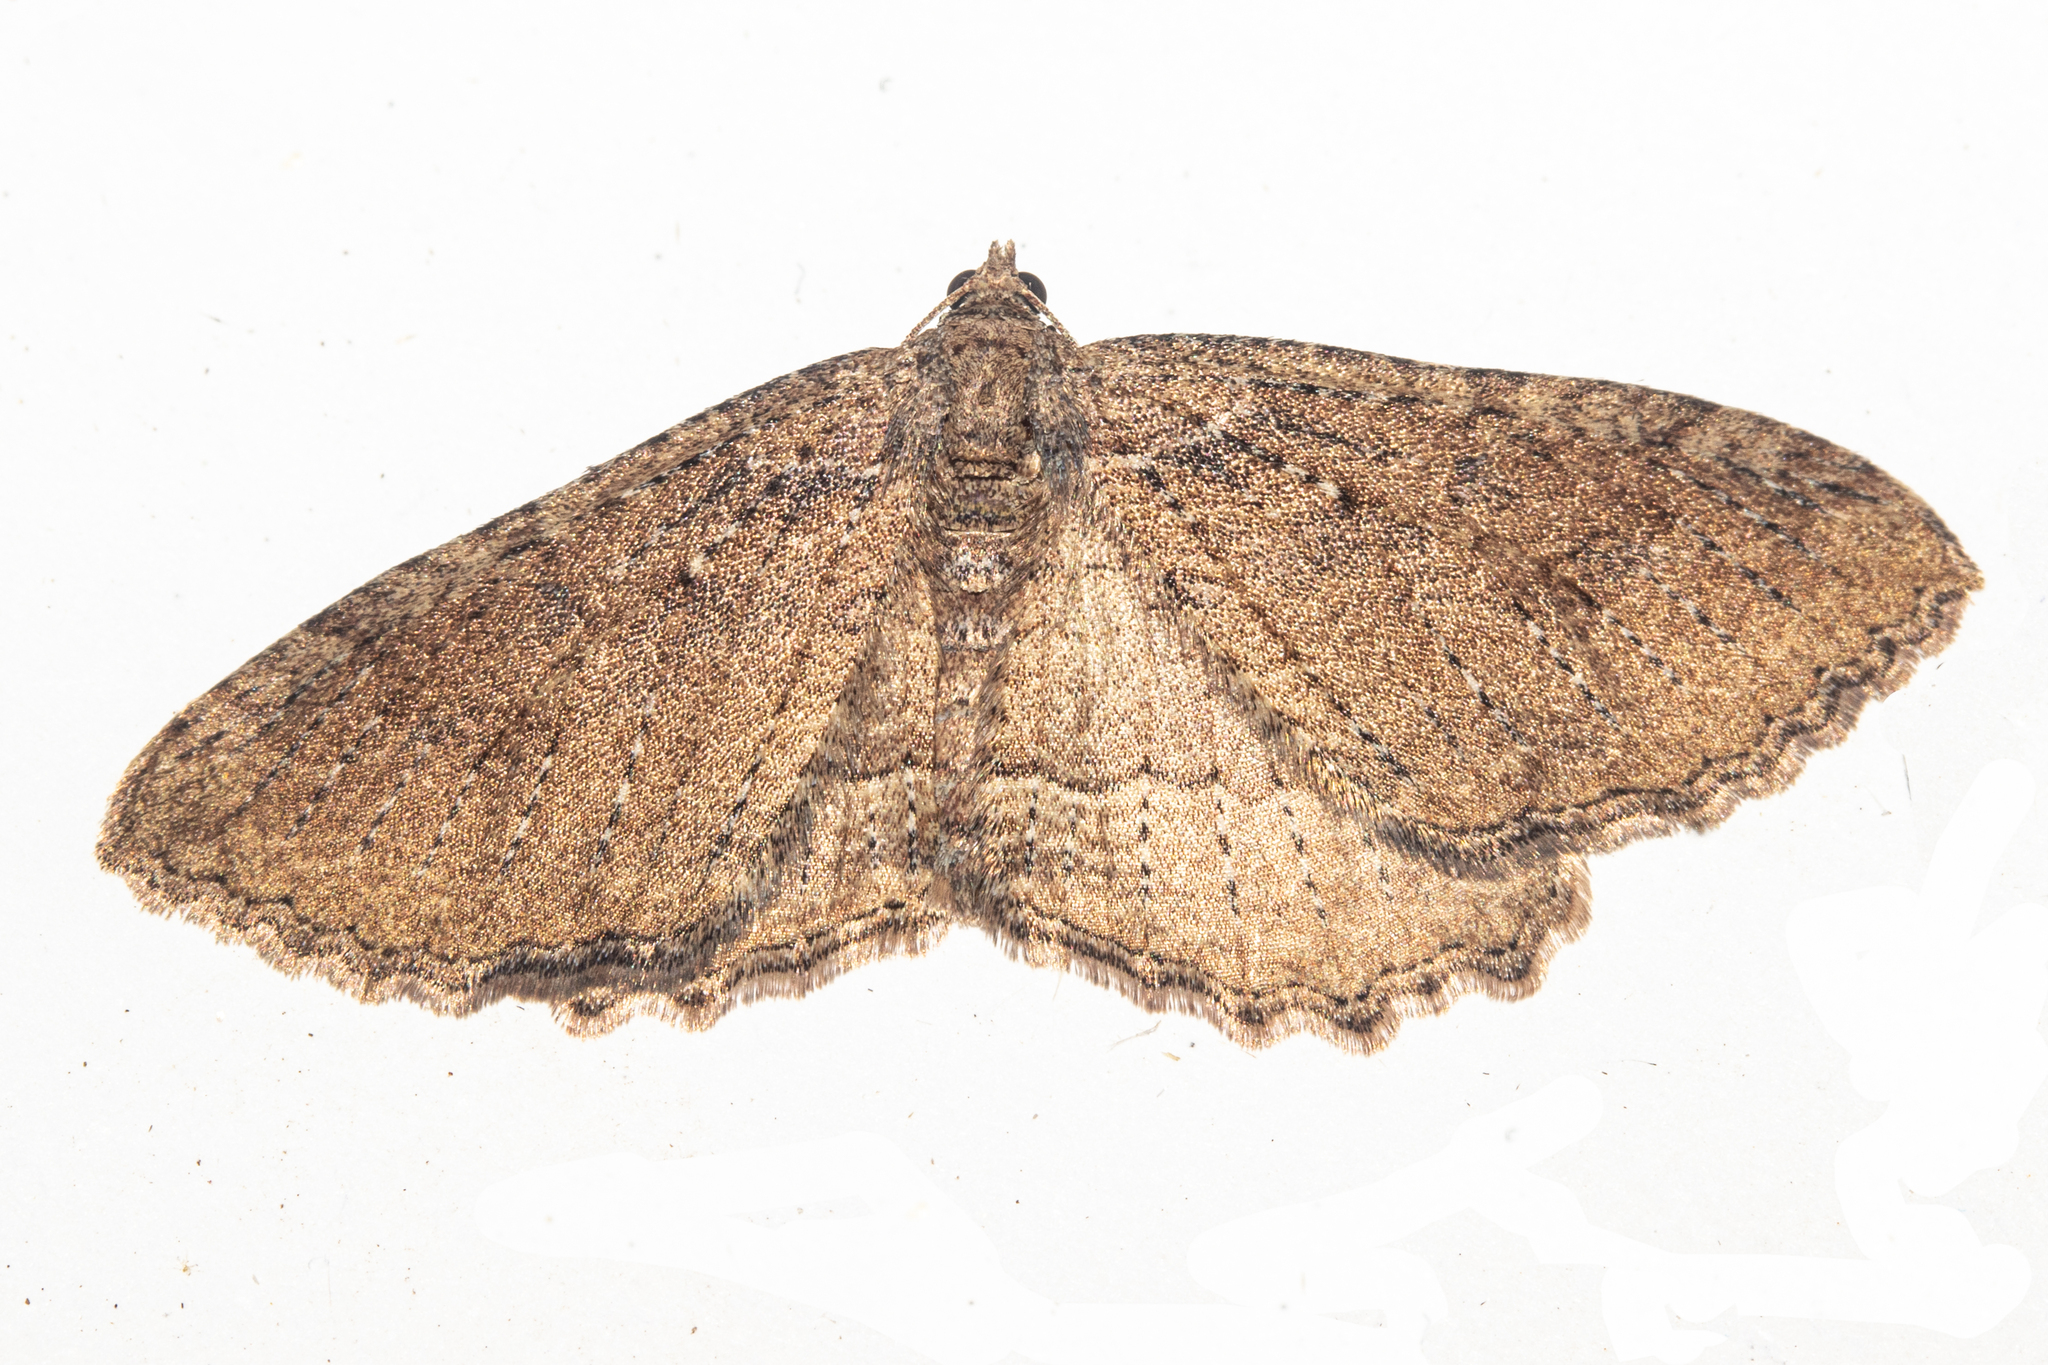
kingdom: Animalia
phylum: Arthropoda
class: Insecta
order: Lepidoptera
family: Geometridae
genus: Austrocidaria
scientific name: Austrocidaria cedrinodes
